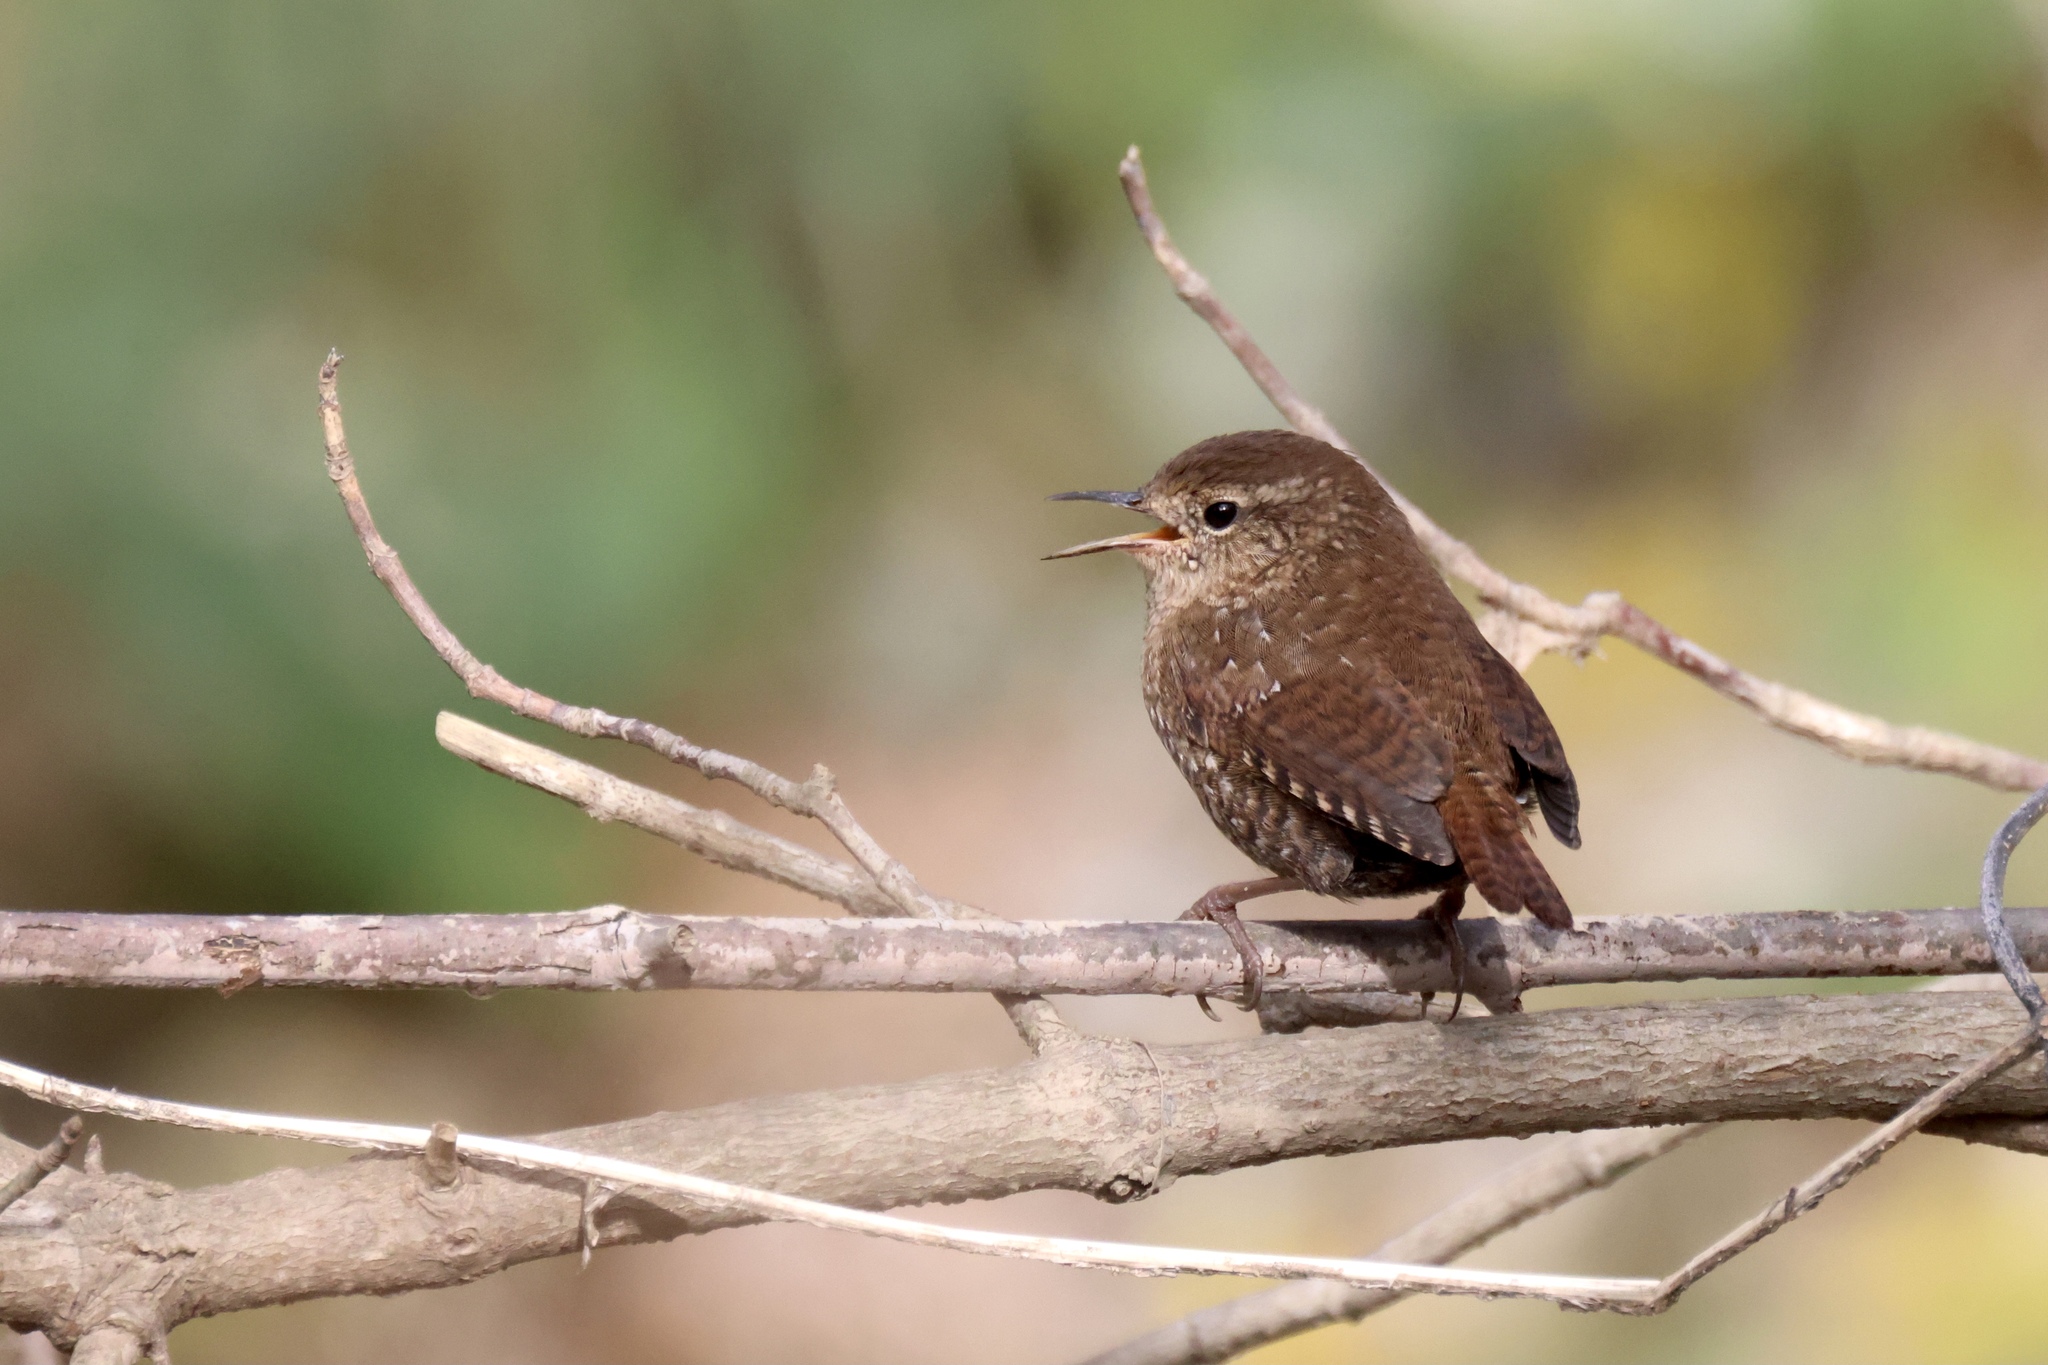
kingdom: Animalia
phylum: Chordata
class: Aves
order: Passeriformes
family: Troglodytidae
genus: Troglodytes
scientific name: Troglodytes hiemalis
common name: Winter wren
